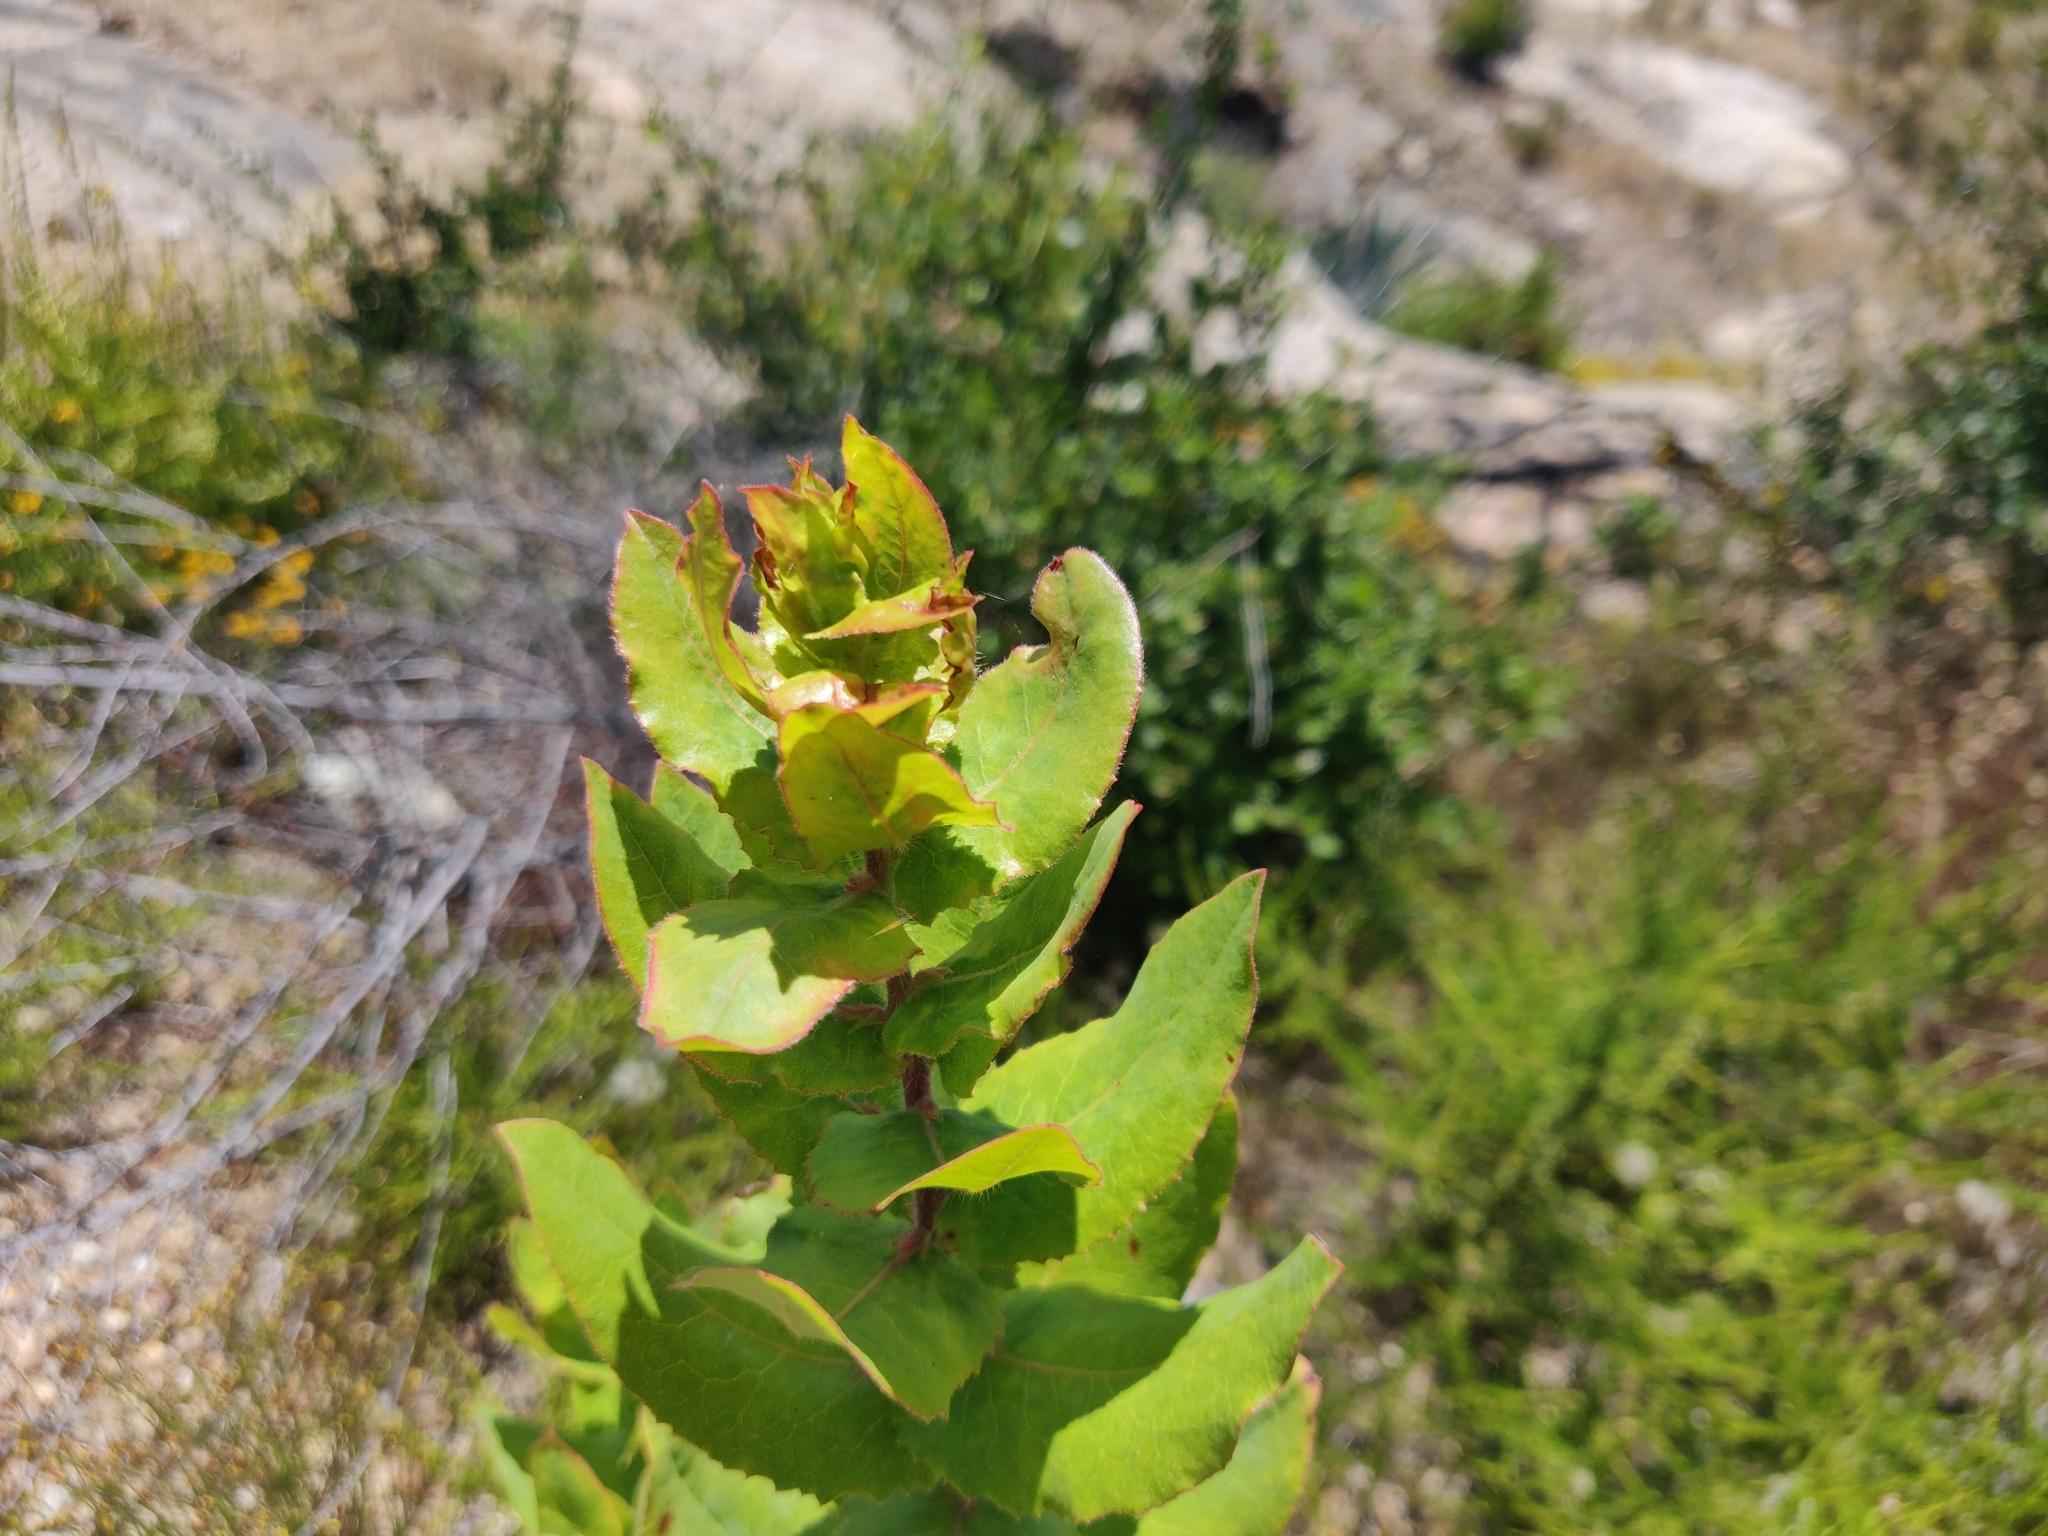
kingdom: Plantae
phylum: Tracheophyta
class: Magnoliopsida
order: Ericales
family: Ericaceae
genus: Arctostaphylos
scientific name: Arctostaphylos andersonii
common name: Santa cruz manzanita
